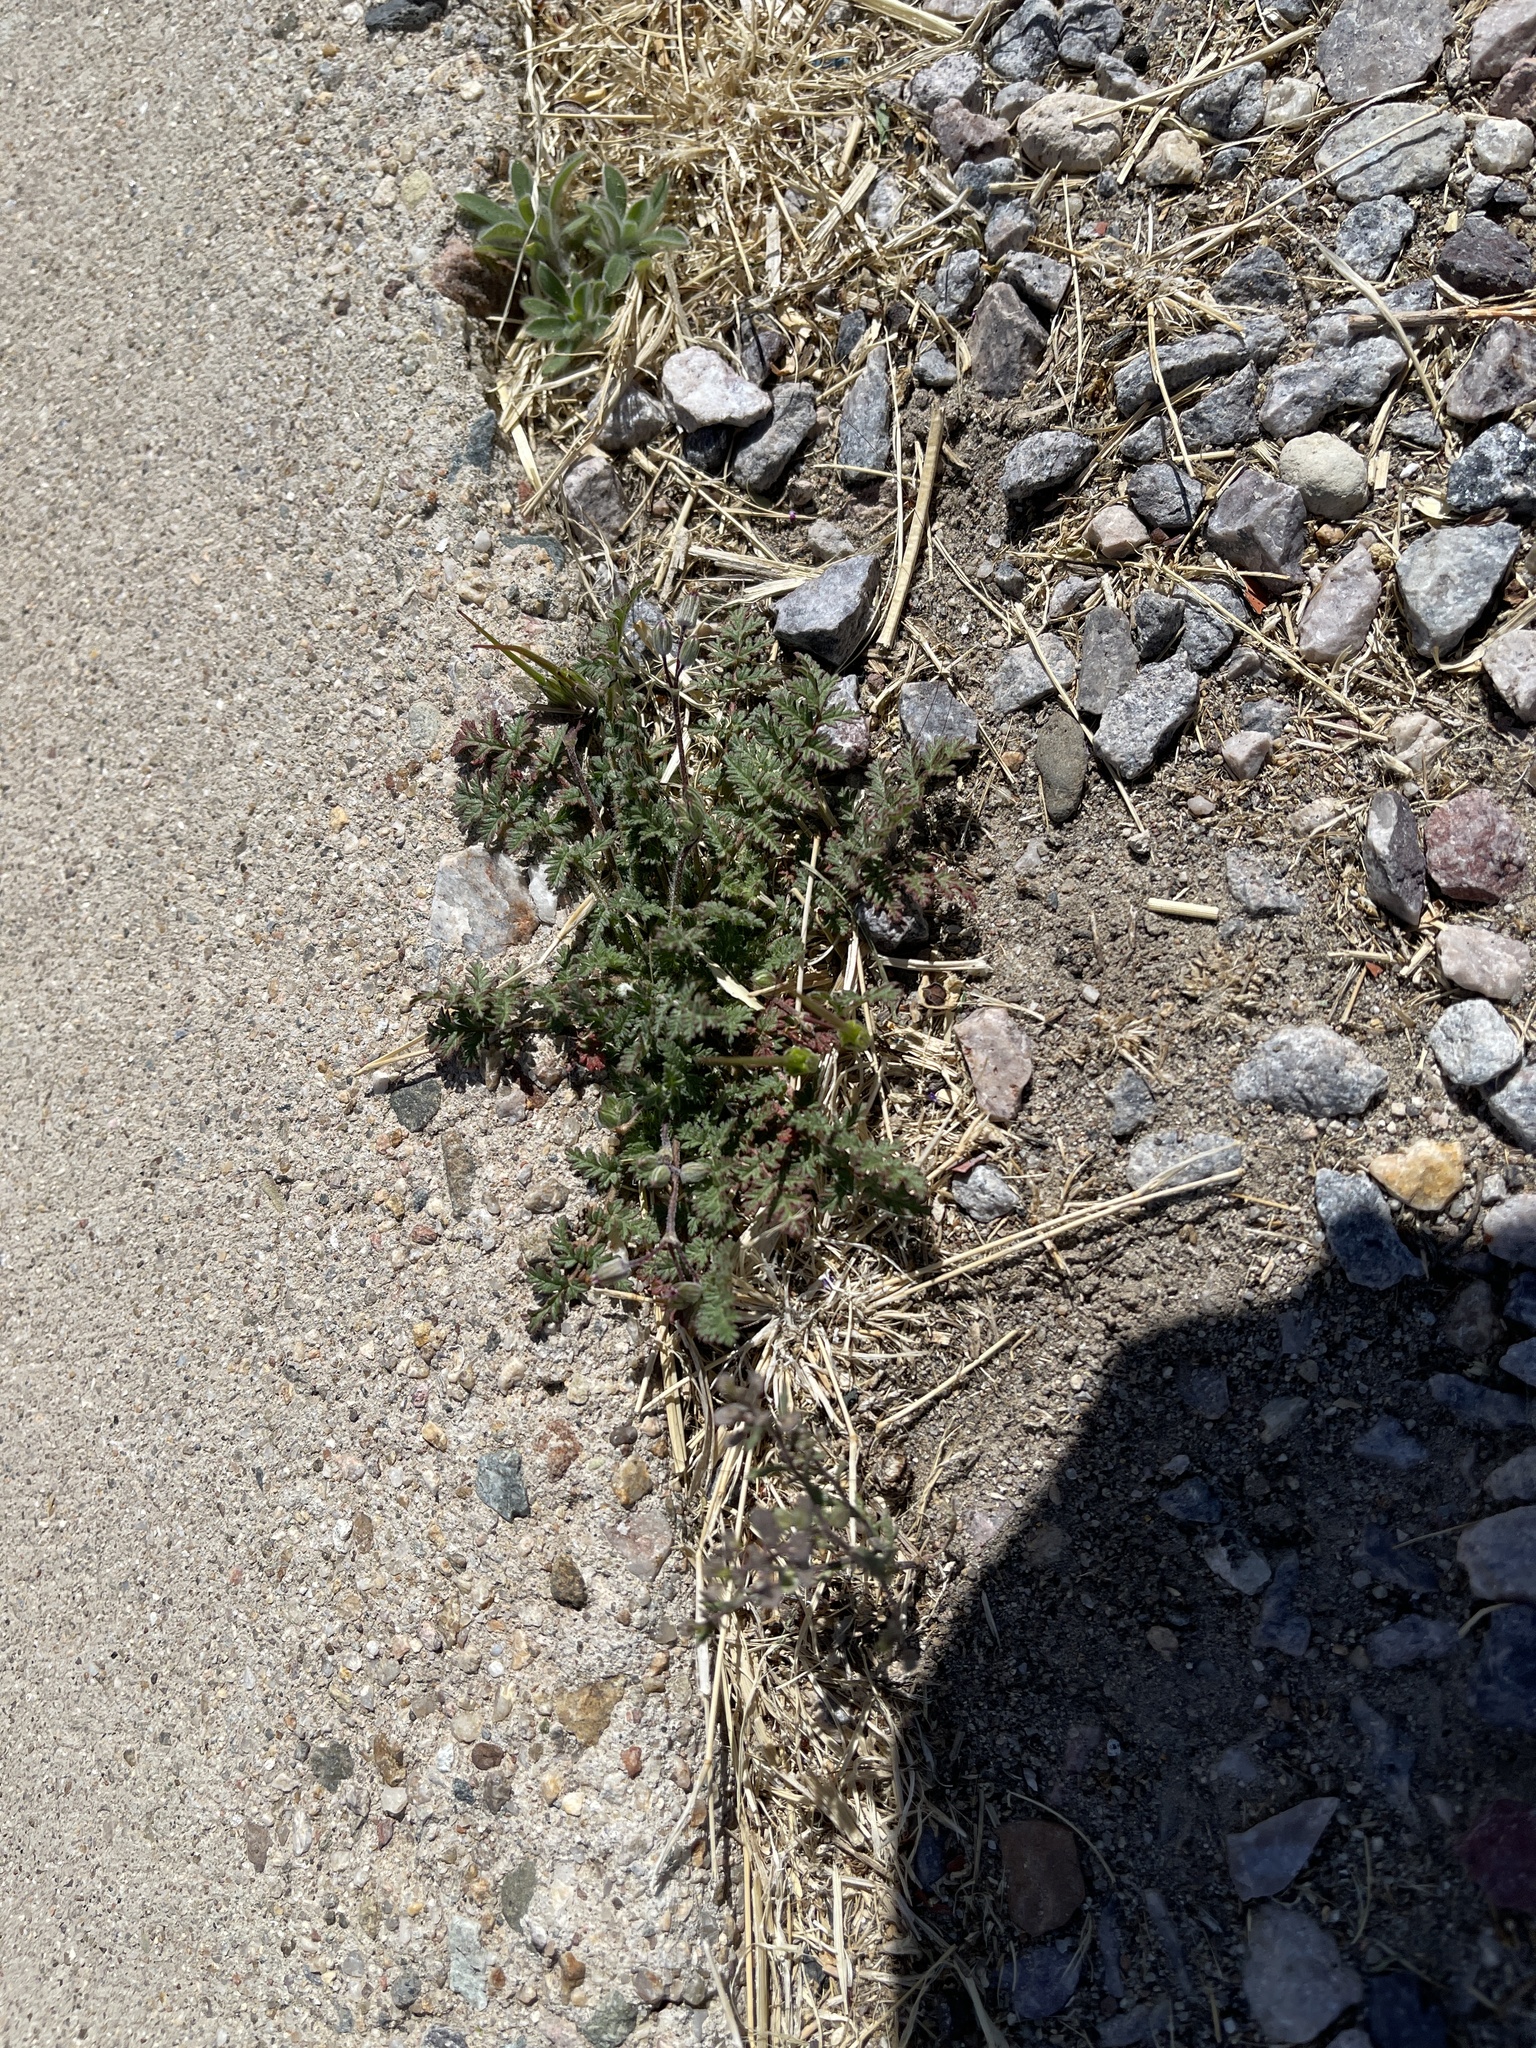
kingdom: Plantae
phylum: Tracheophyta
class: Magnoliopsida
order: Geraniales
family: Geraniaceae
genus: Erodium
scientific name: Erodium cicutarium
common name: Common stork's-bill
